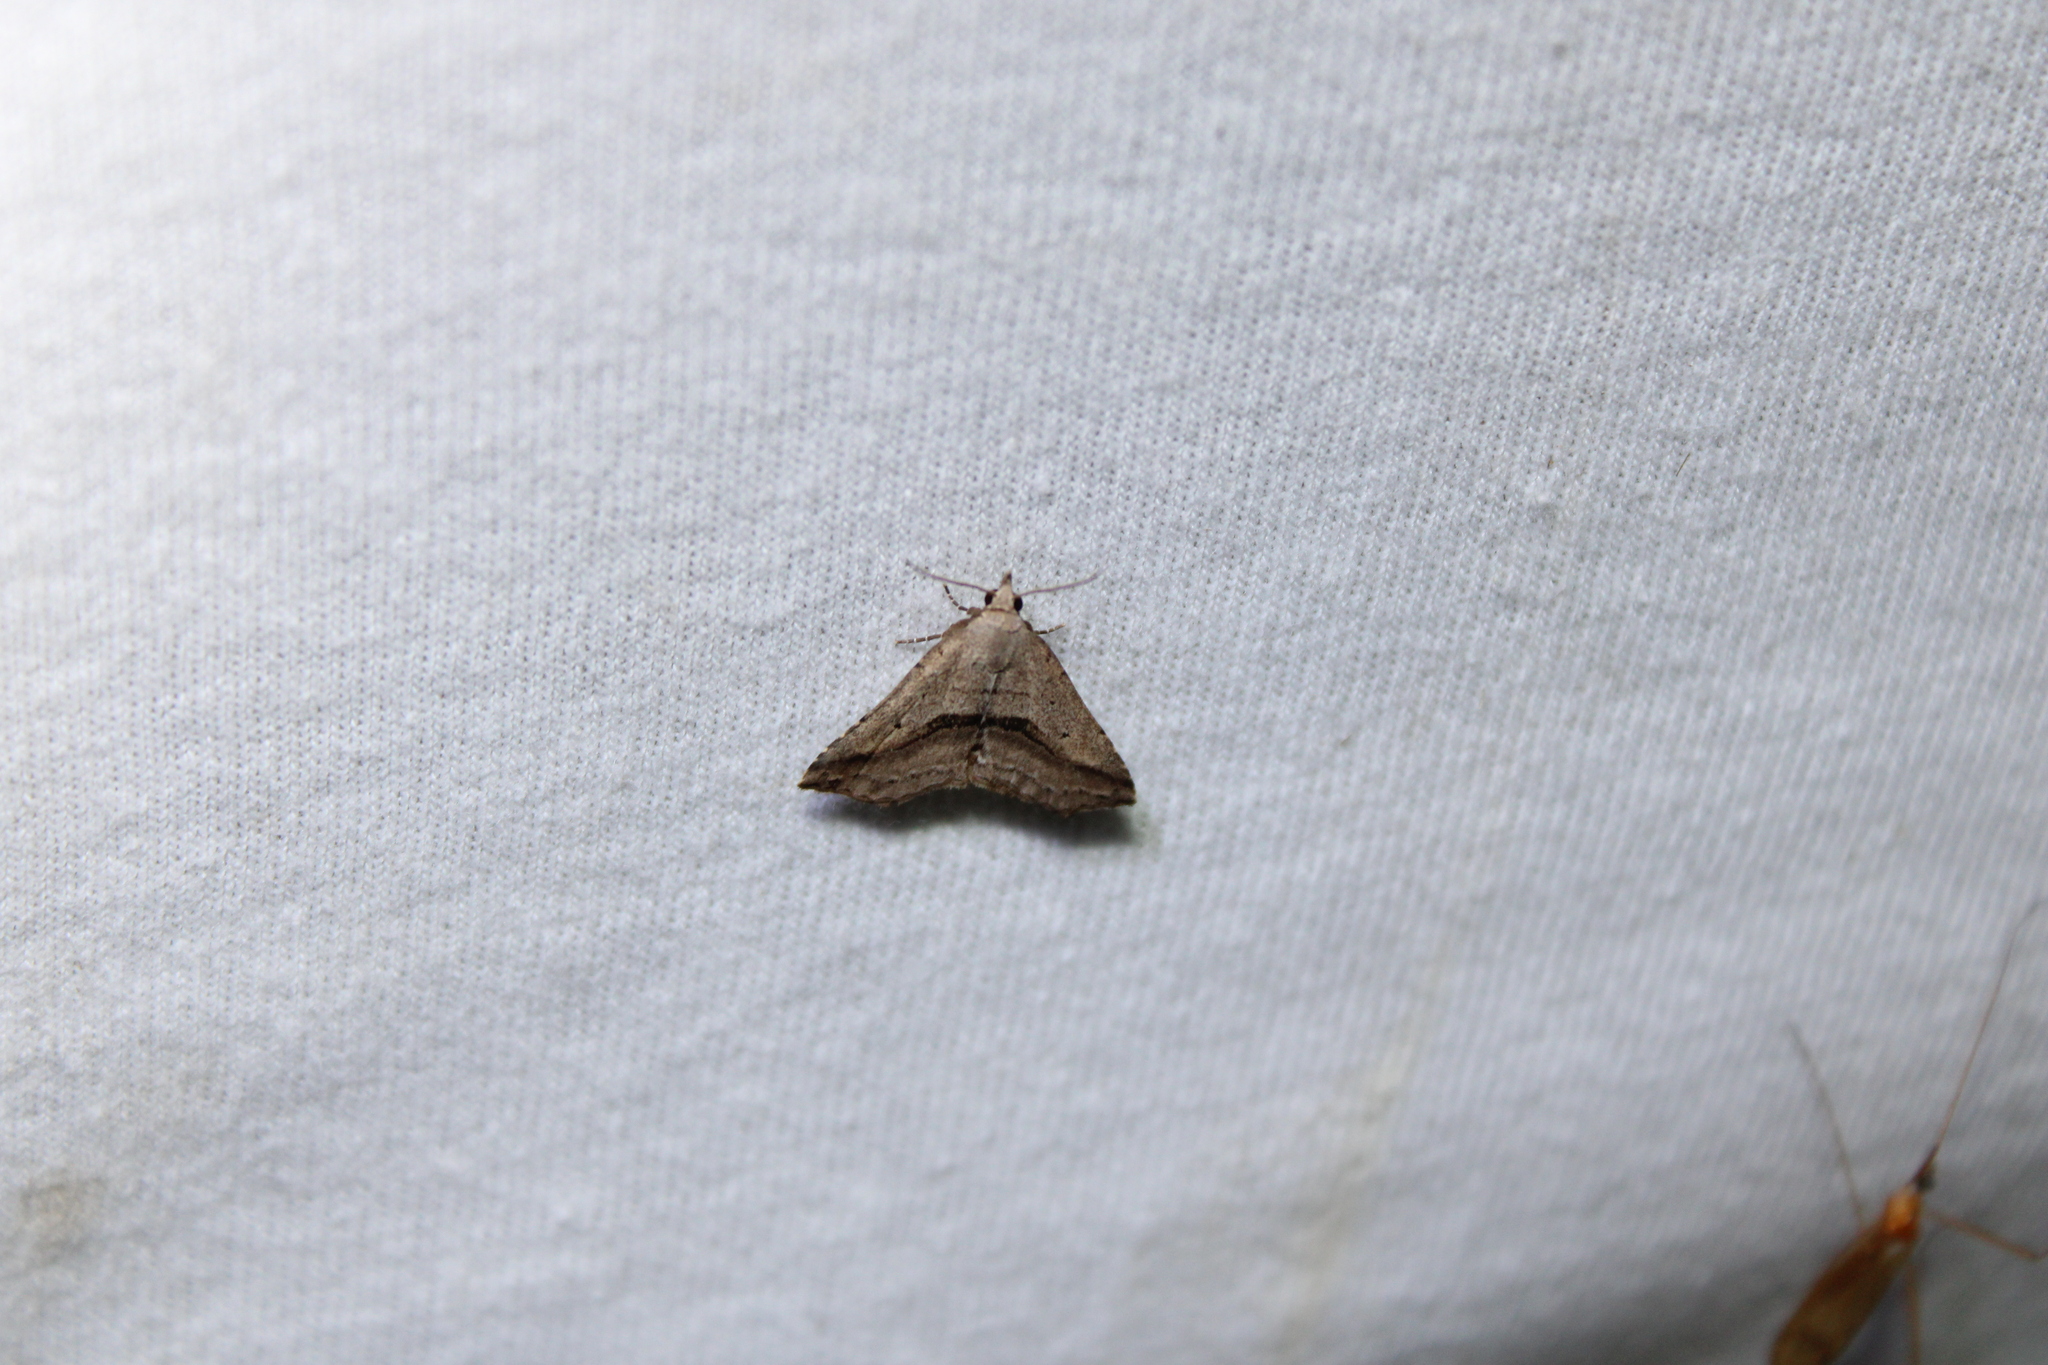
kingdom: Animalia
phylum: Arthropoda
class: Insecta
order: Lepidoptera
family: Erebidae
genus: Spargaloma
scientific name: Spargaloma perditalis
